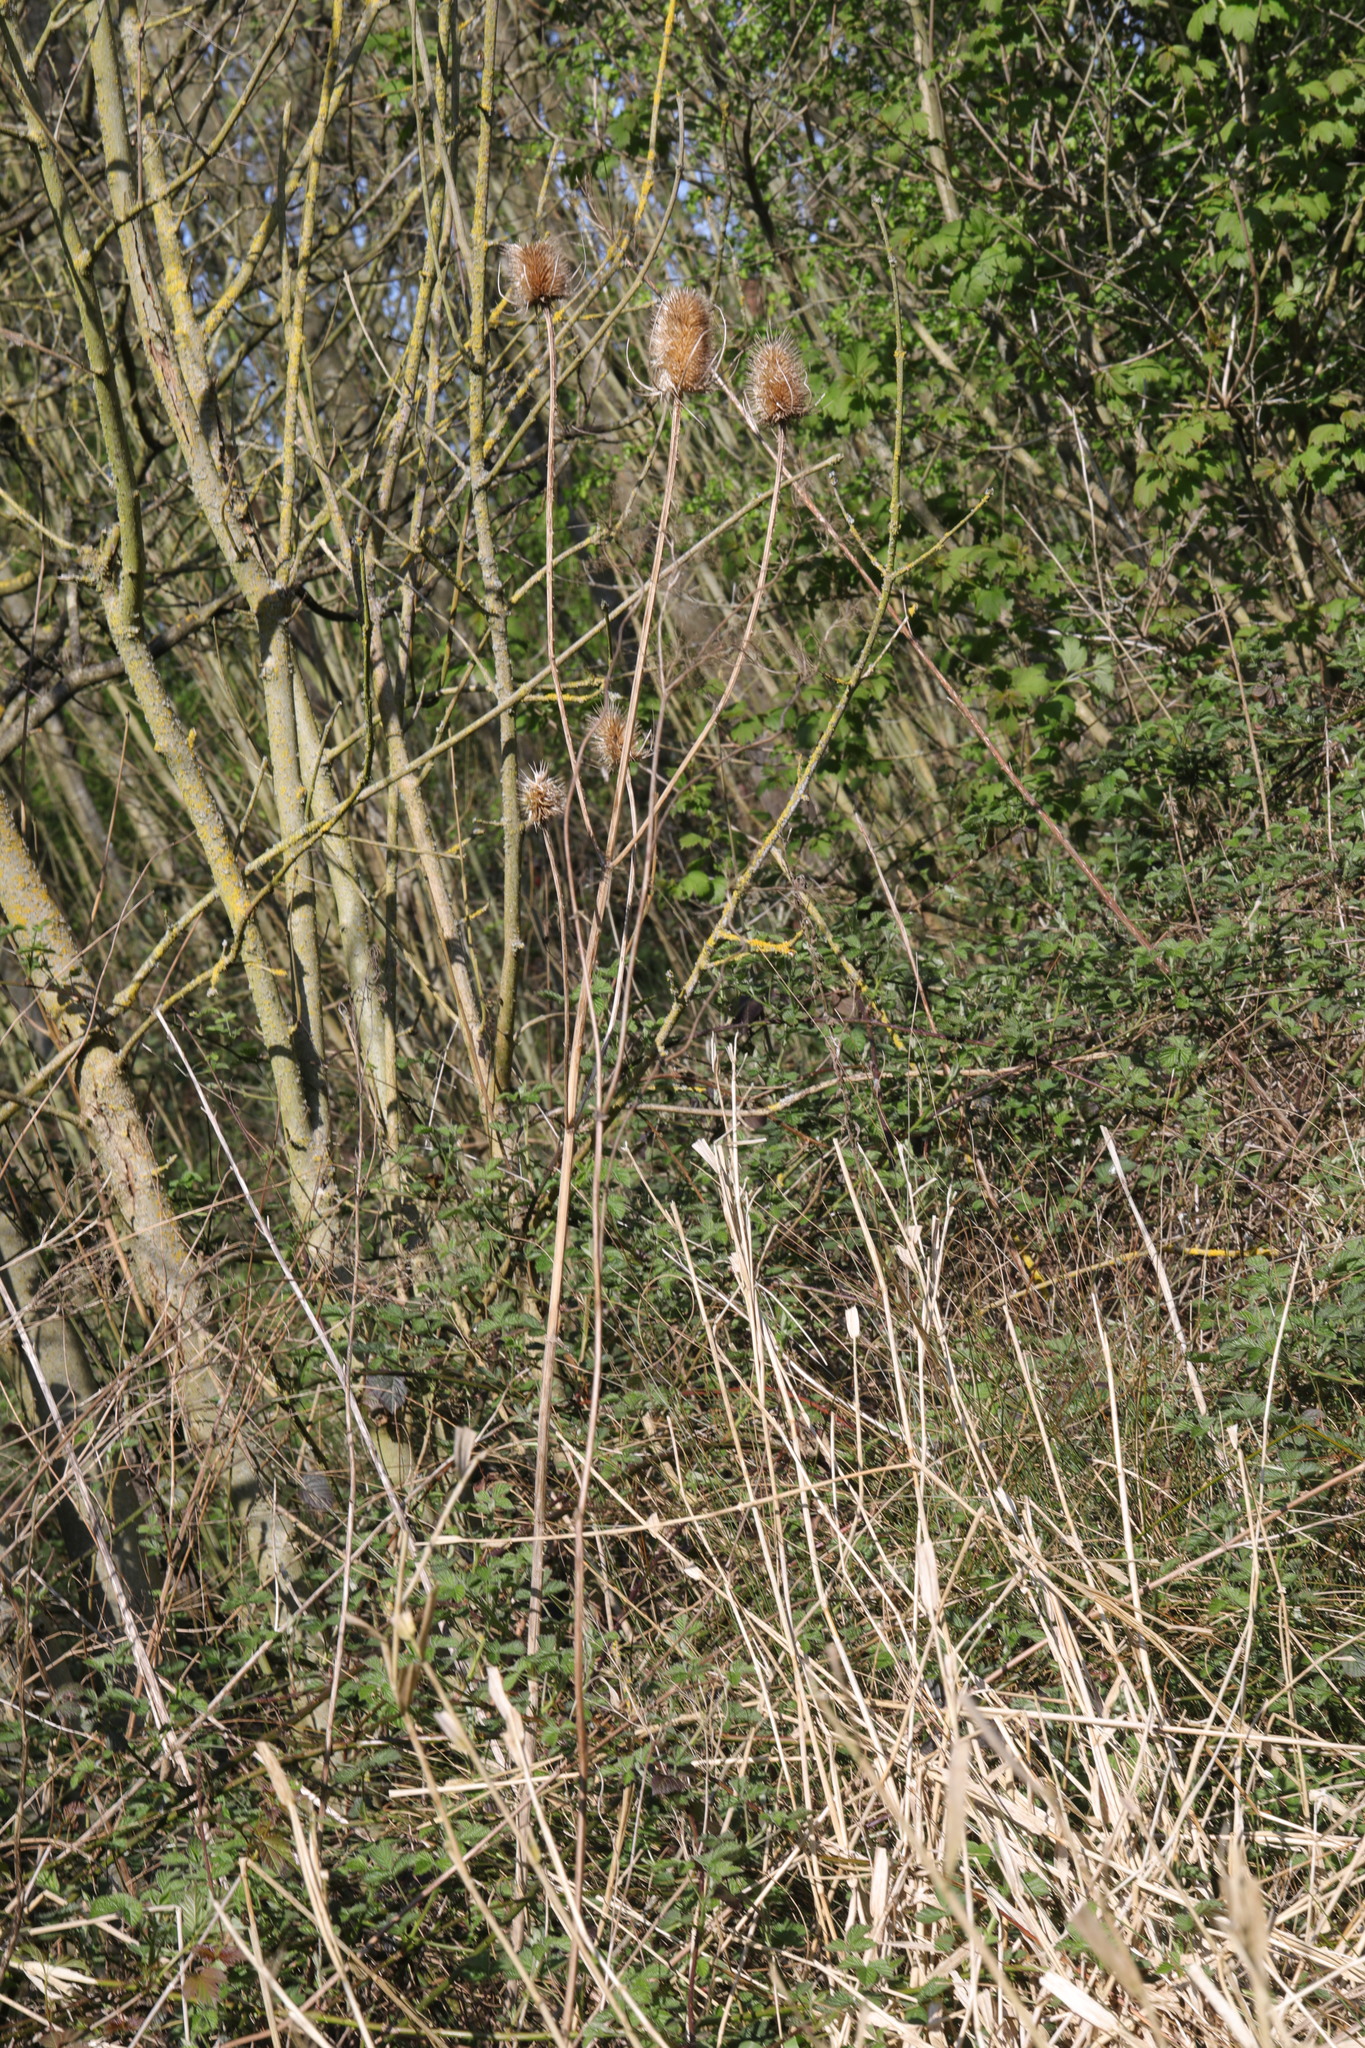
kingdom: Plantae
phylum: Tracheophyta
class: Magnoliopsida
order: Dipsacales
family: Caprifoliaceae
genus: Dipsacus
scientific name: Dipsacus fullonum
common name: Teasel
